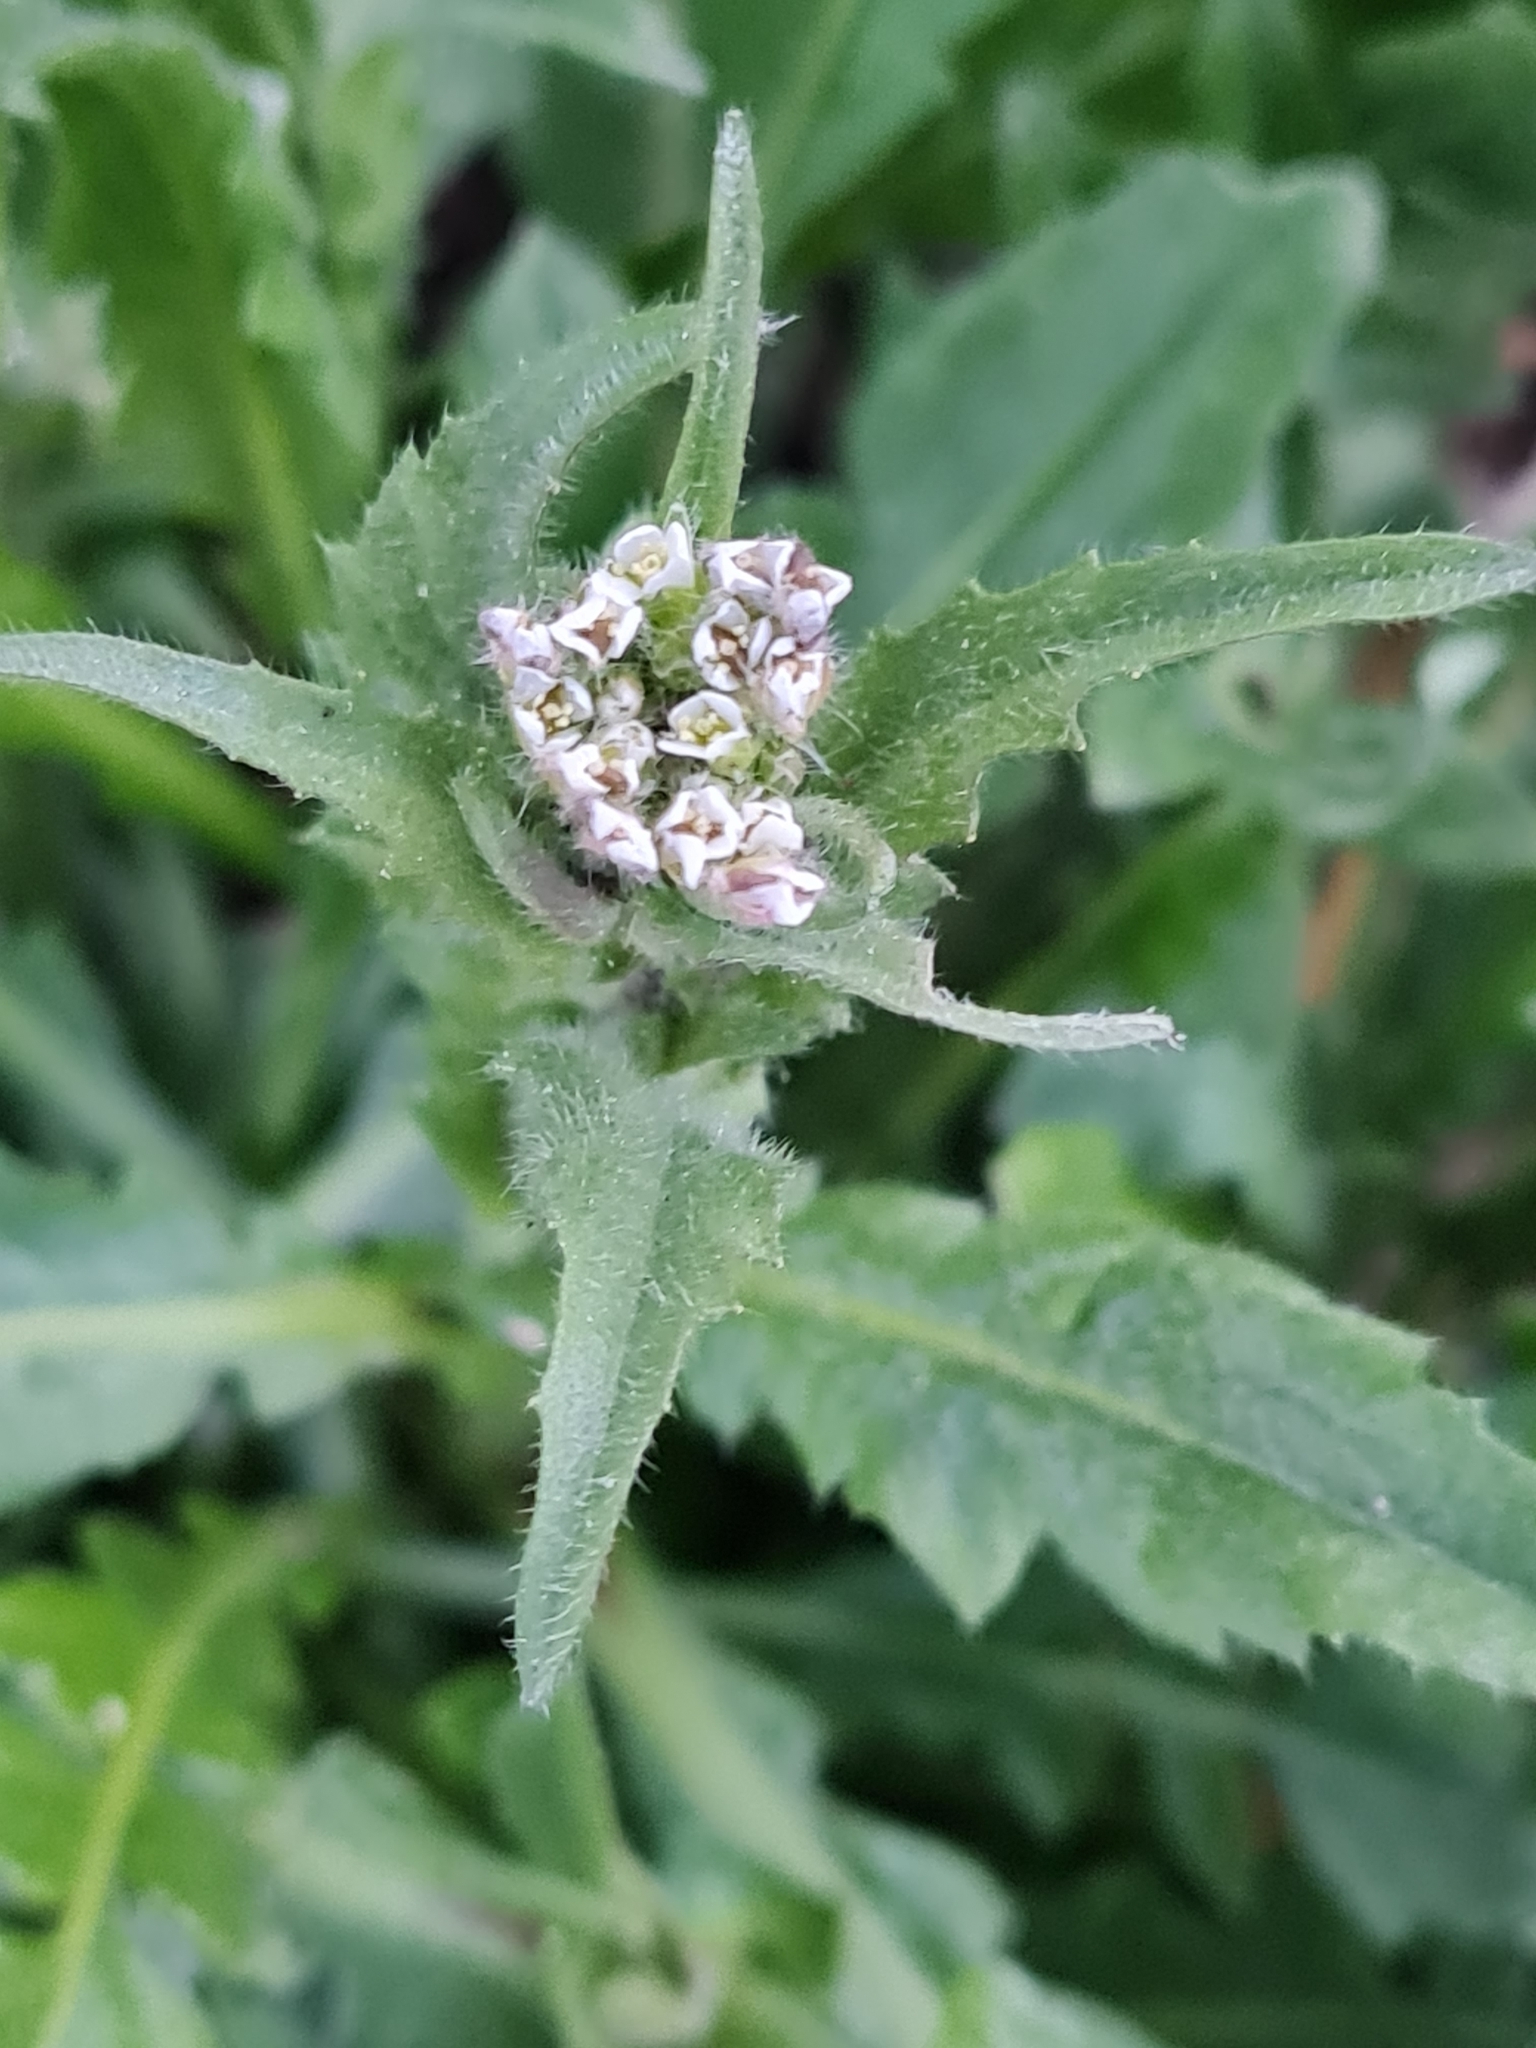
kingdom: Plantae
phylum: Tracheophyta
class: Magnoliopsida
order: Brassicales
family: Brassicaceae
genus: Capsella
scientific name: Capsella bursa-pastoris
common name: Shepherd's purse
